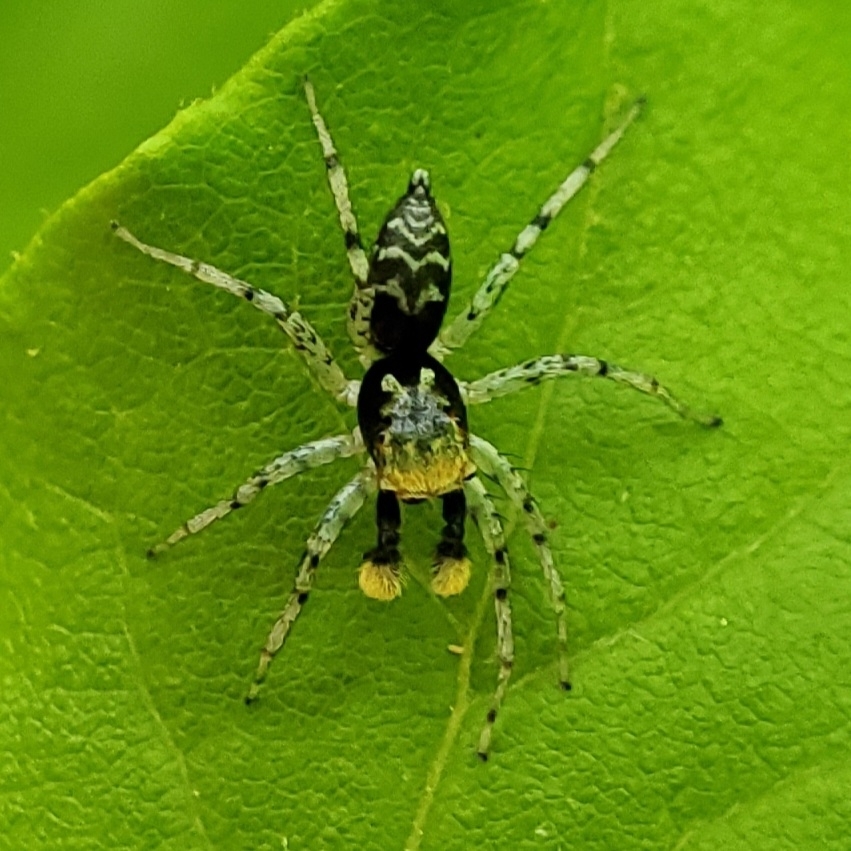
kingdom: Animalia
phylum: Arthropoda
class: Arachnida
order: Araneae
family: Salticidae
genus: Maevia
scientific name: Maevia
